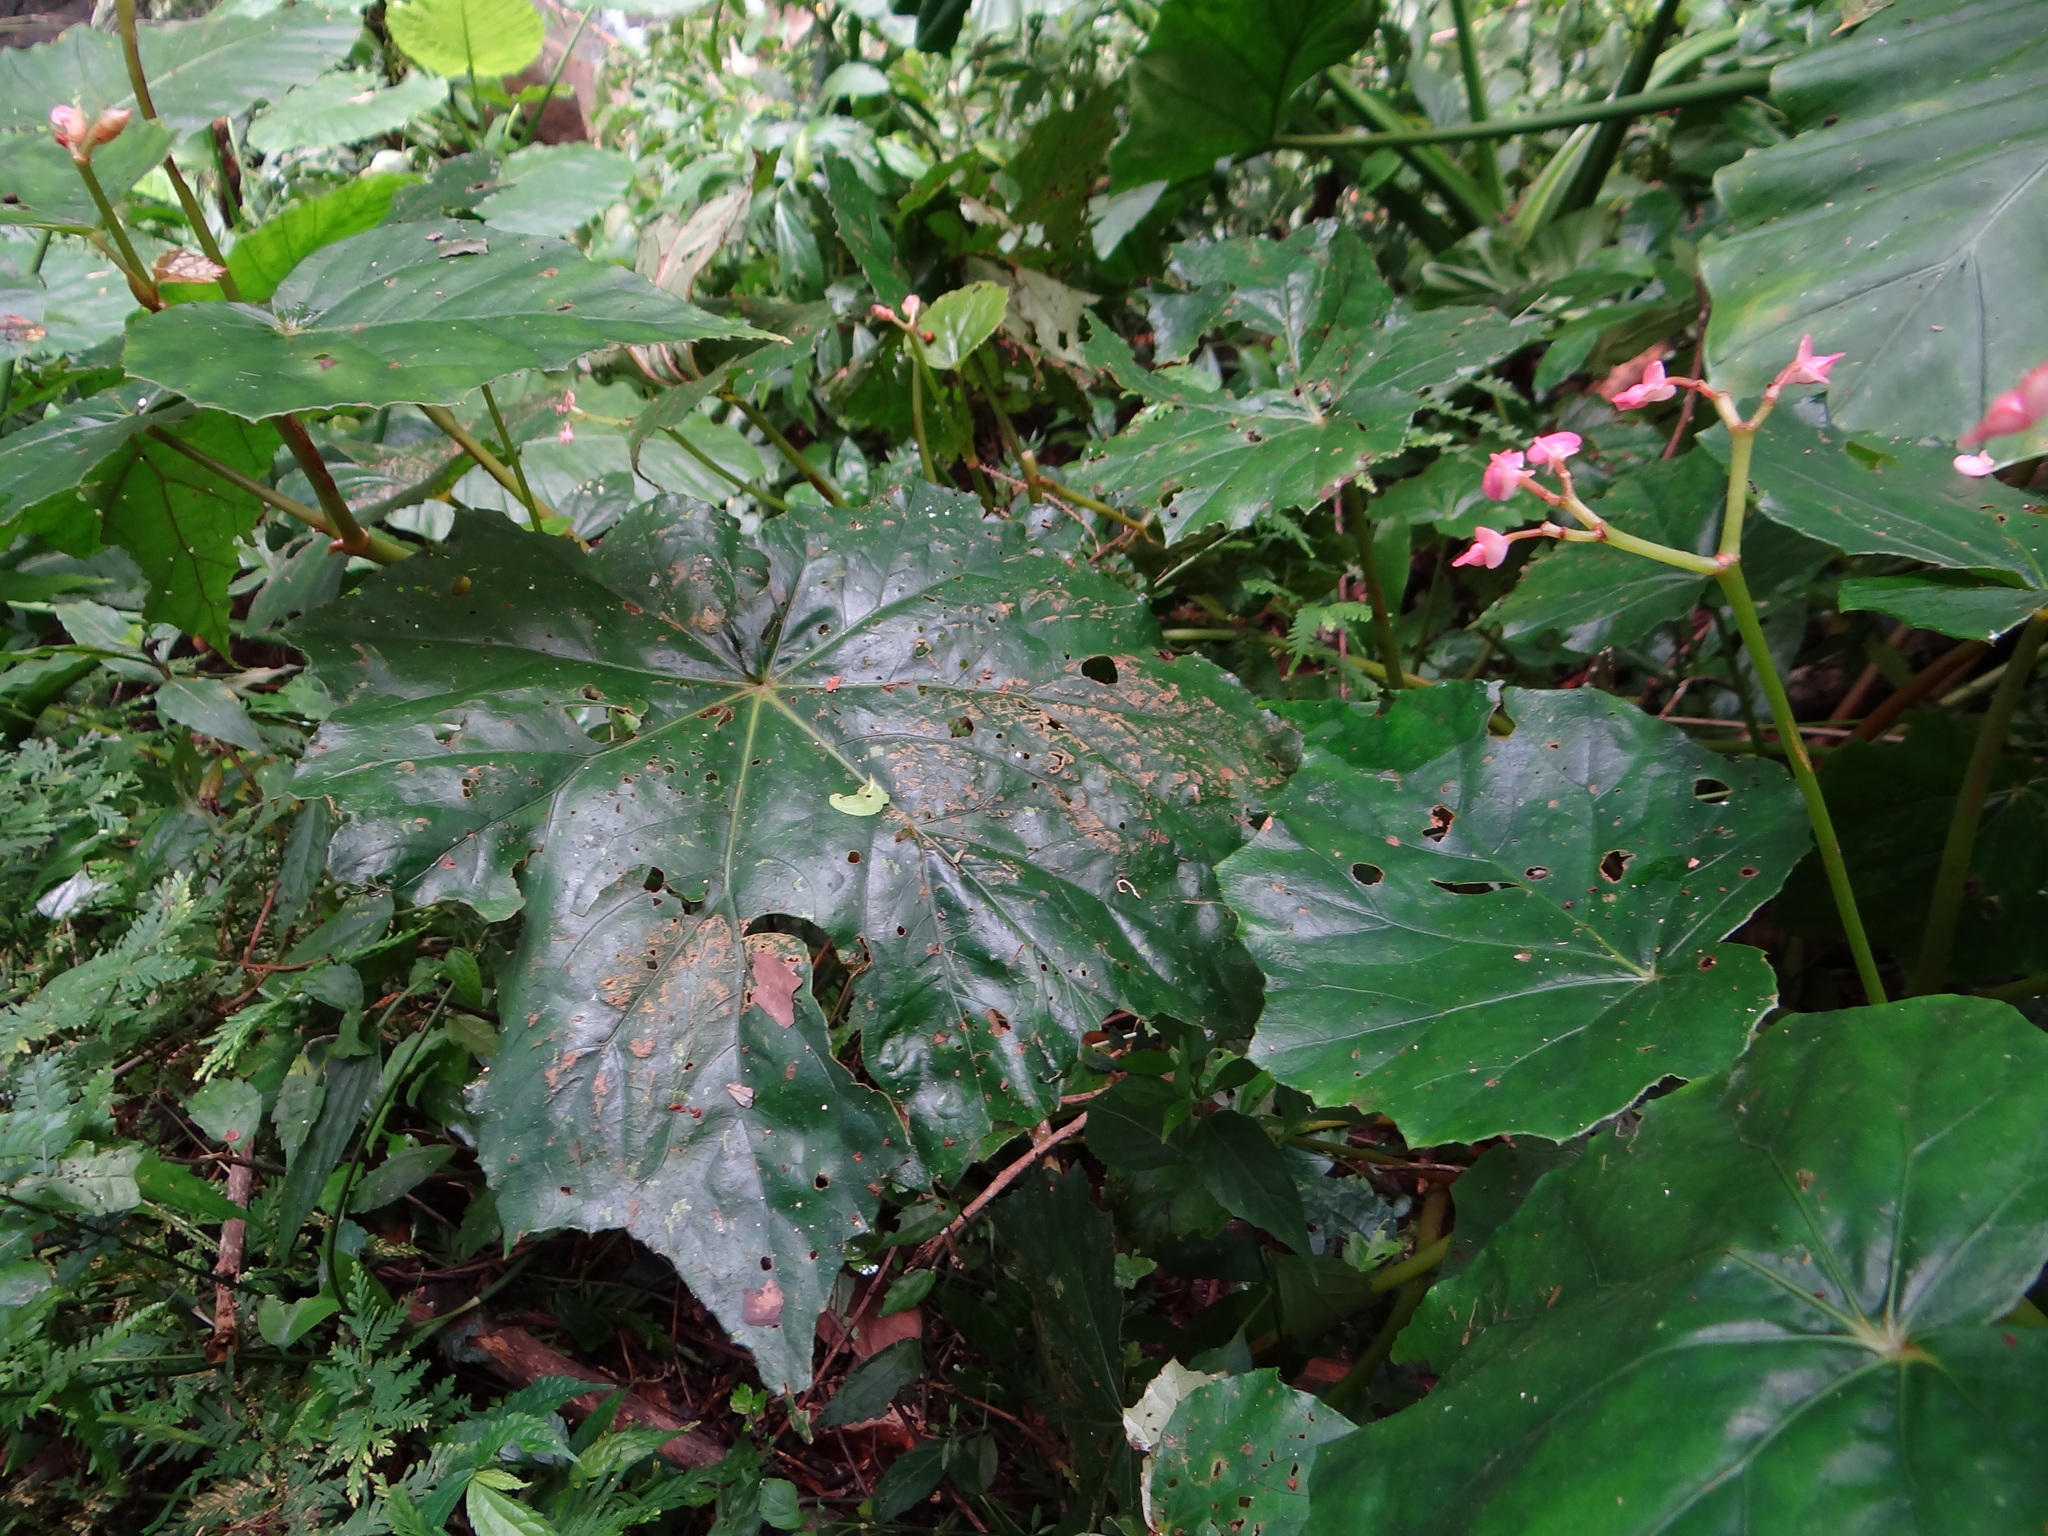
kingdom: Plantae
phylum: Tracheophyta
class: Magnoliopsida
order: Cucurbitales
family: Begoniaceae
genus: Begonia
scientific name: Begonia formosana
